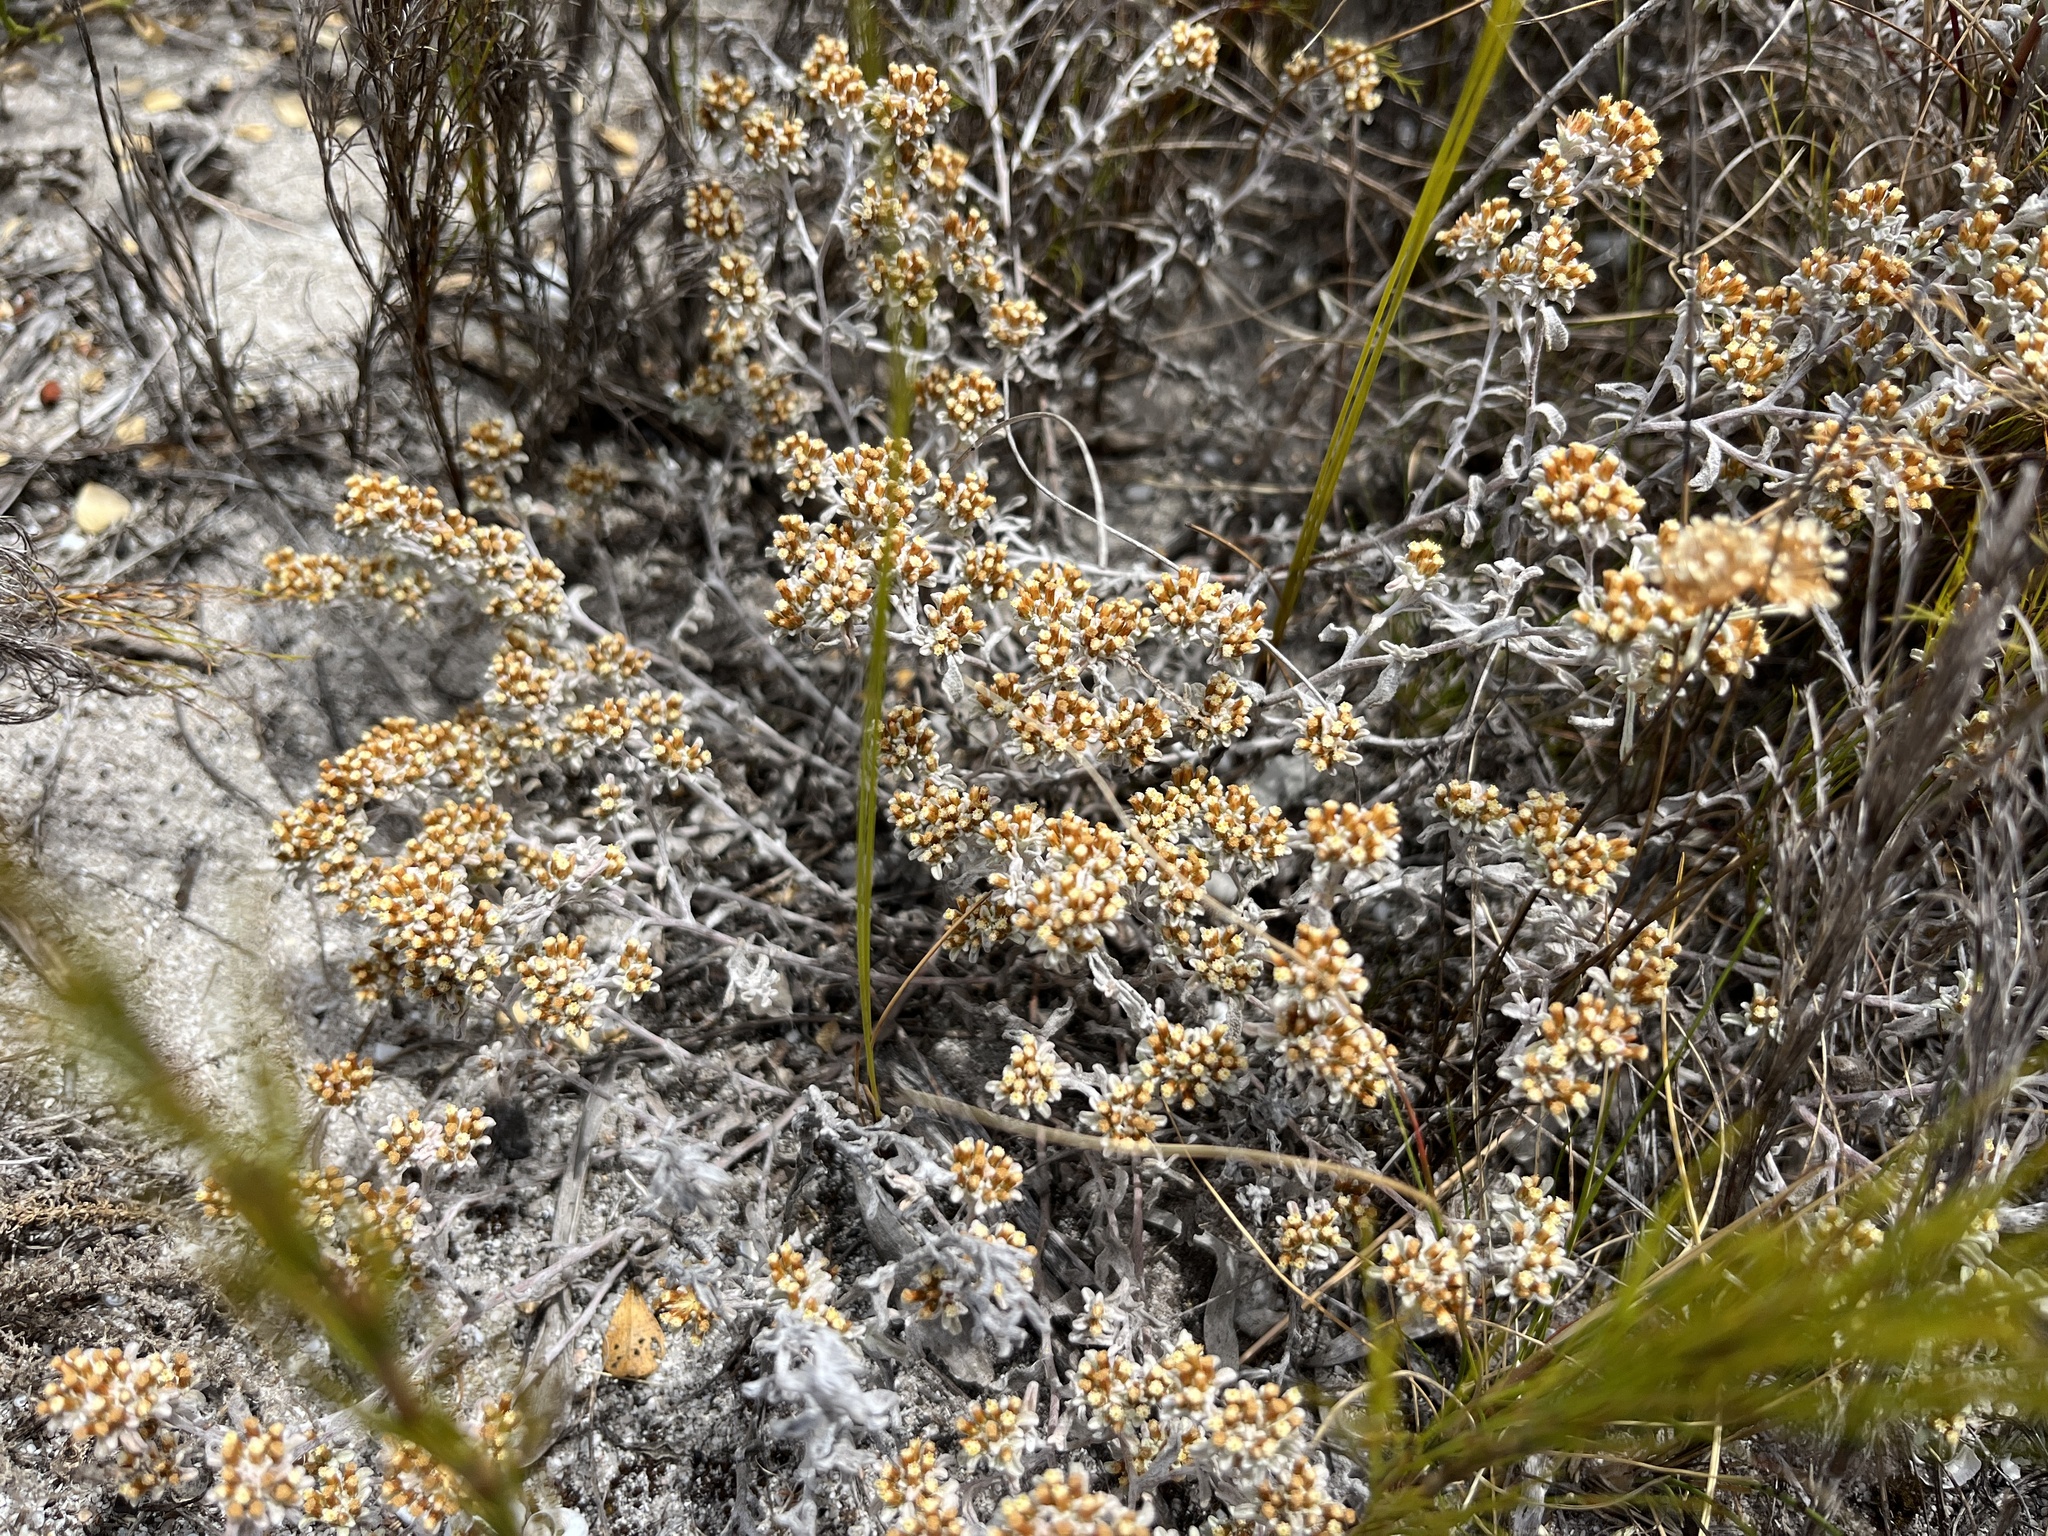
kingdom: Plantae
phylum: Tracheophyta
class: Magnoliopsida
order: Asterales
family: Asteraceae
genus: Helichrysum
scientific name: Helichrysum litorale
